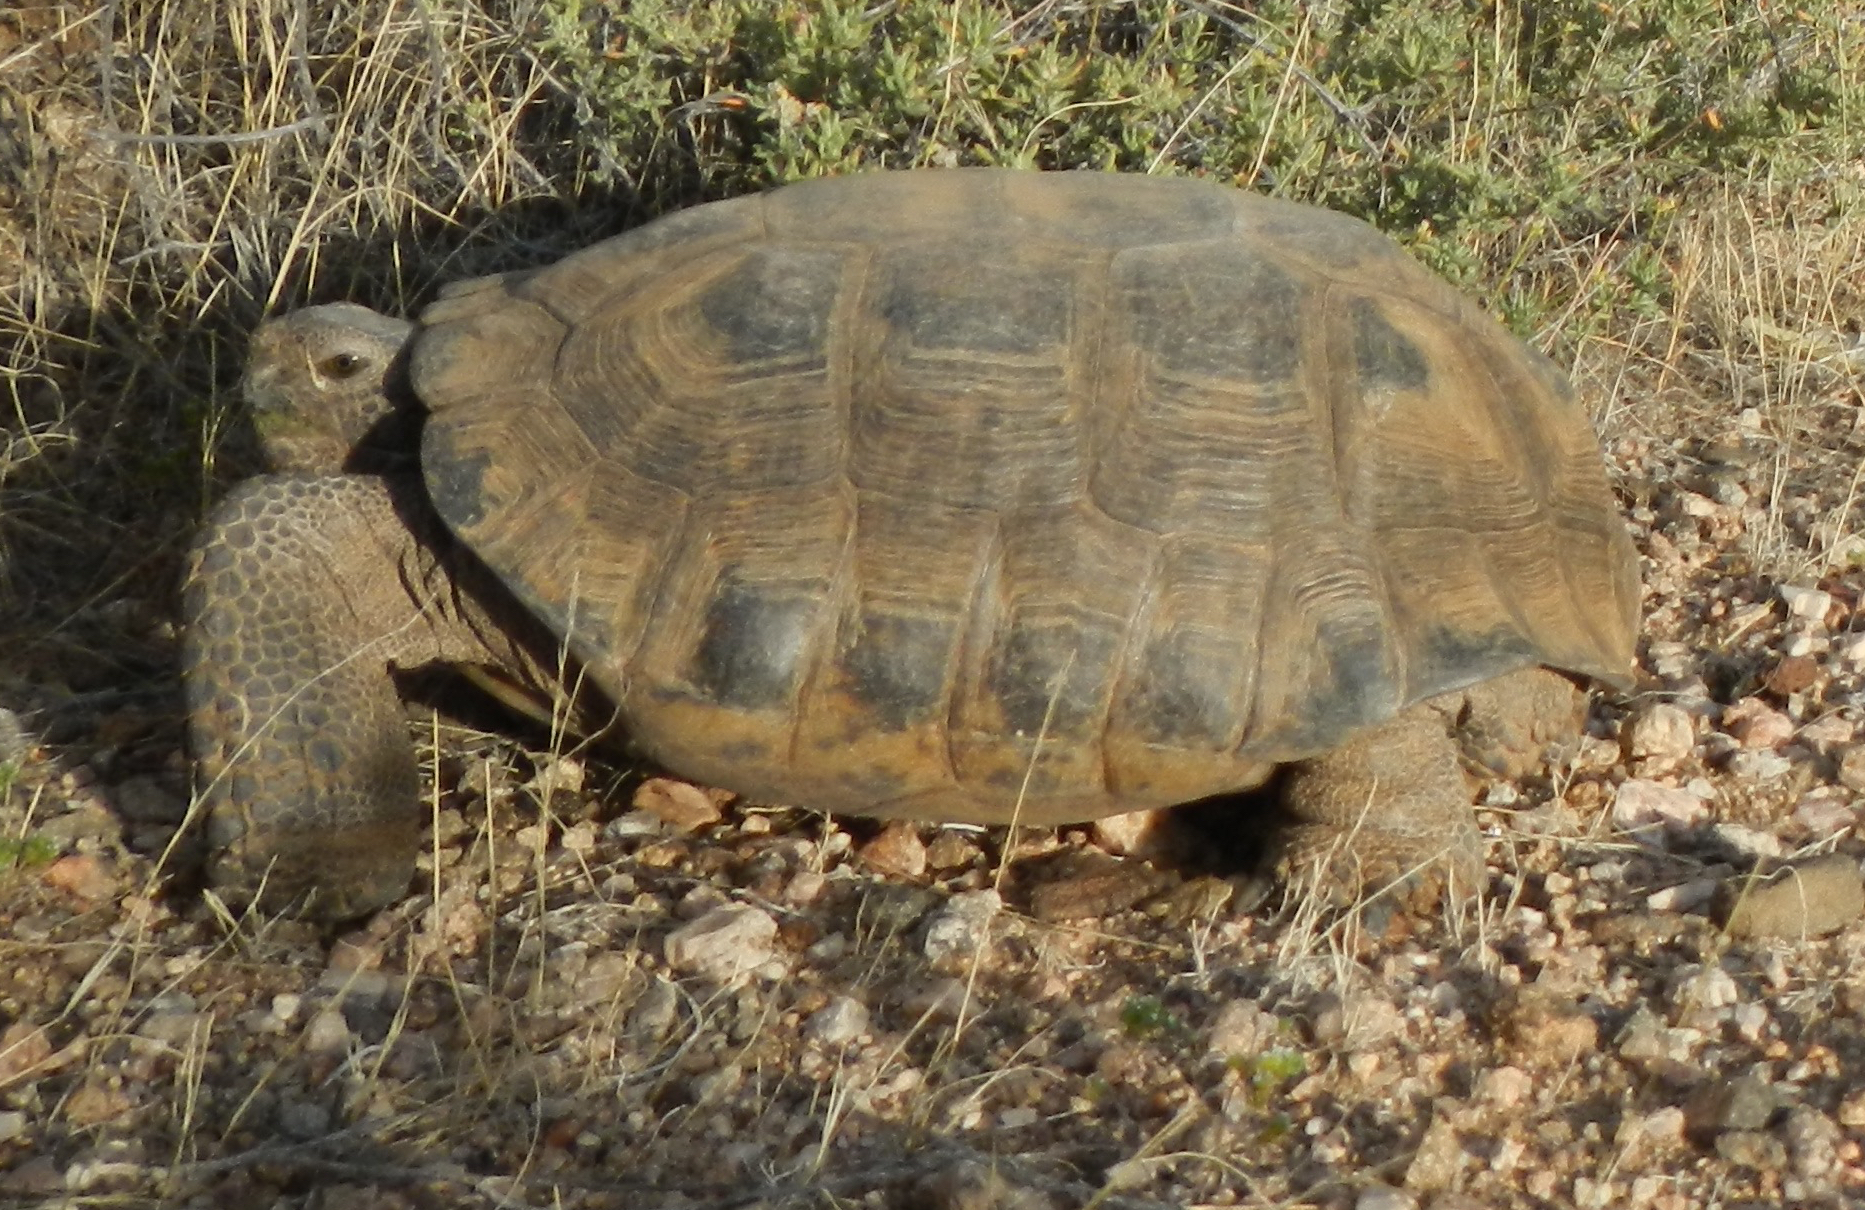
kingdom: Animalia
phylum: Chordata
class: Testudines
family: Testudinidae
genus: Gopherus
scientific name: Gopherus agassizii
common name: Mojave desert tortoise
